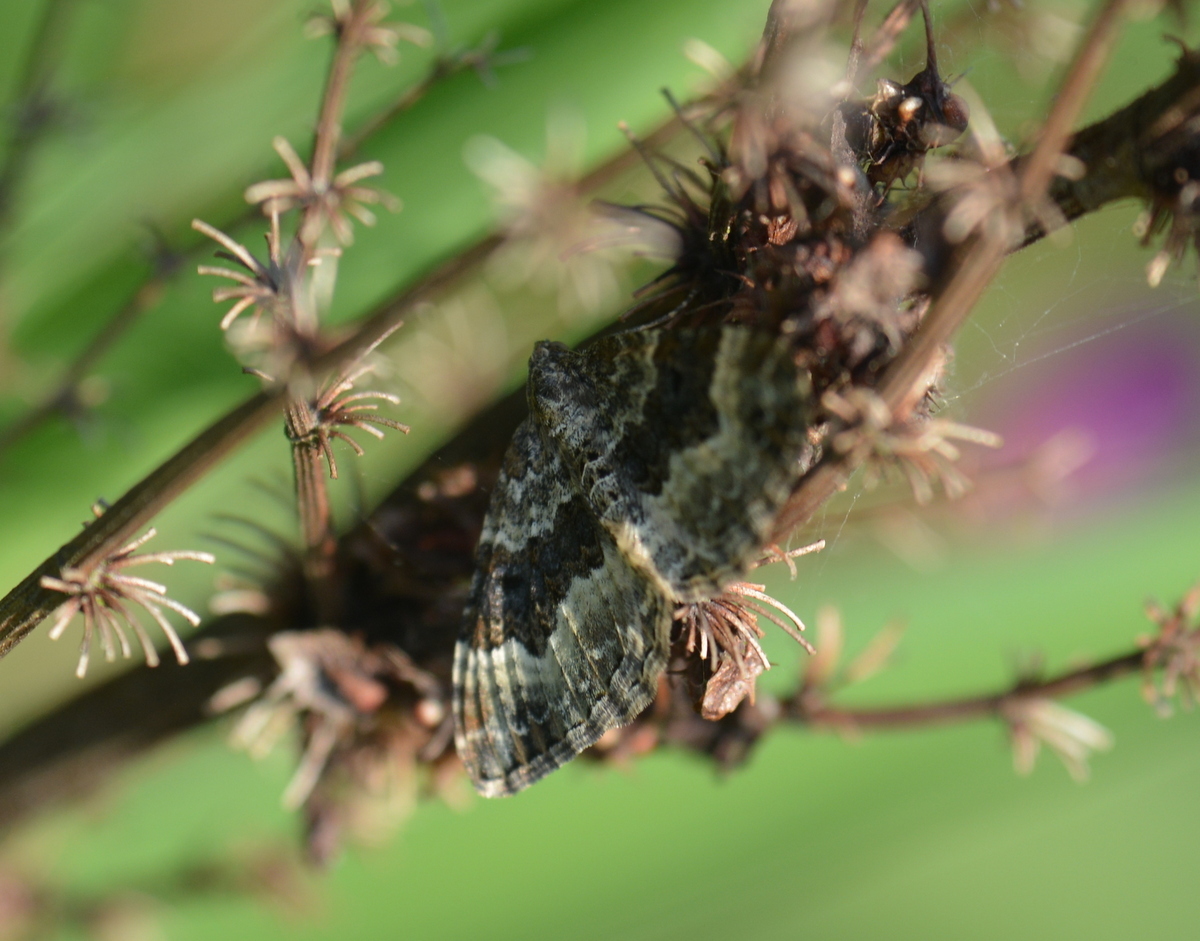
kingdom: Animalia
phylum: Arthropoda
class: Insecta
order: Lepidoptera
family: Geometridae
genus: Epirrhoe
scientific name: Epirrhoe alternata
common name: Common carpet
